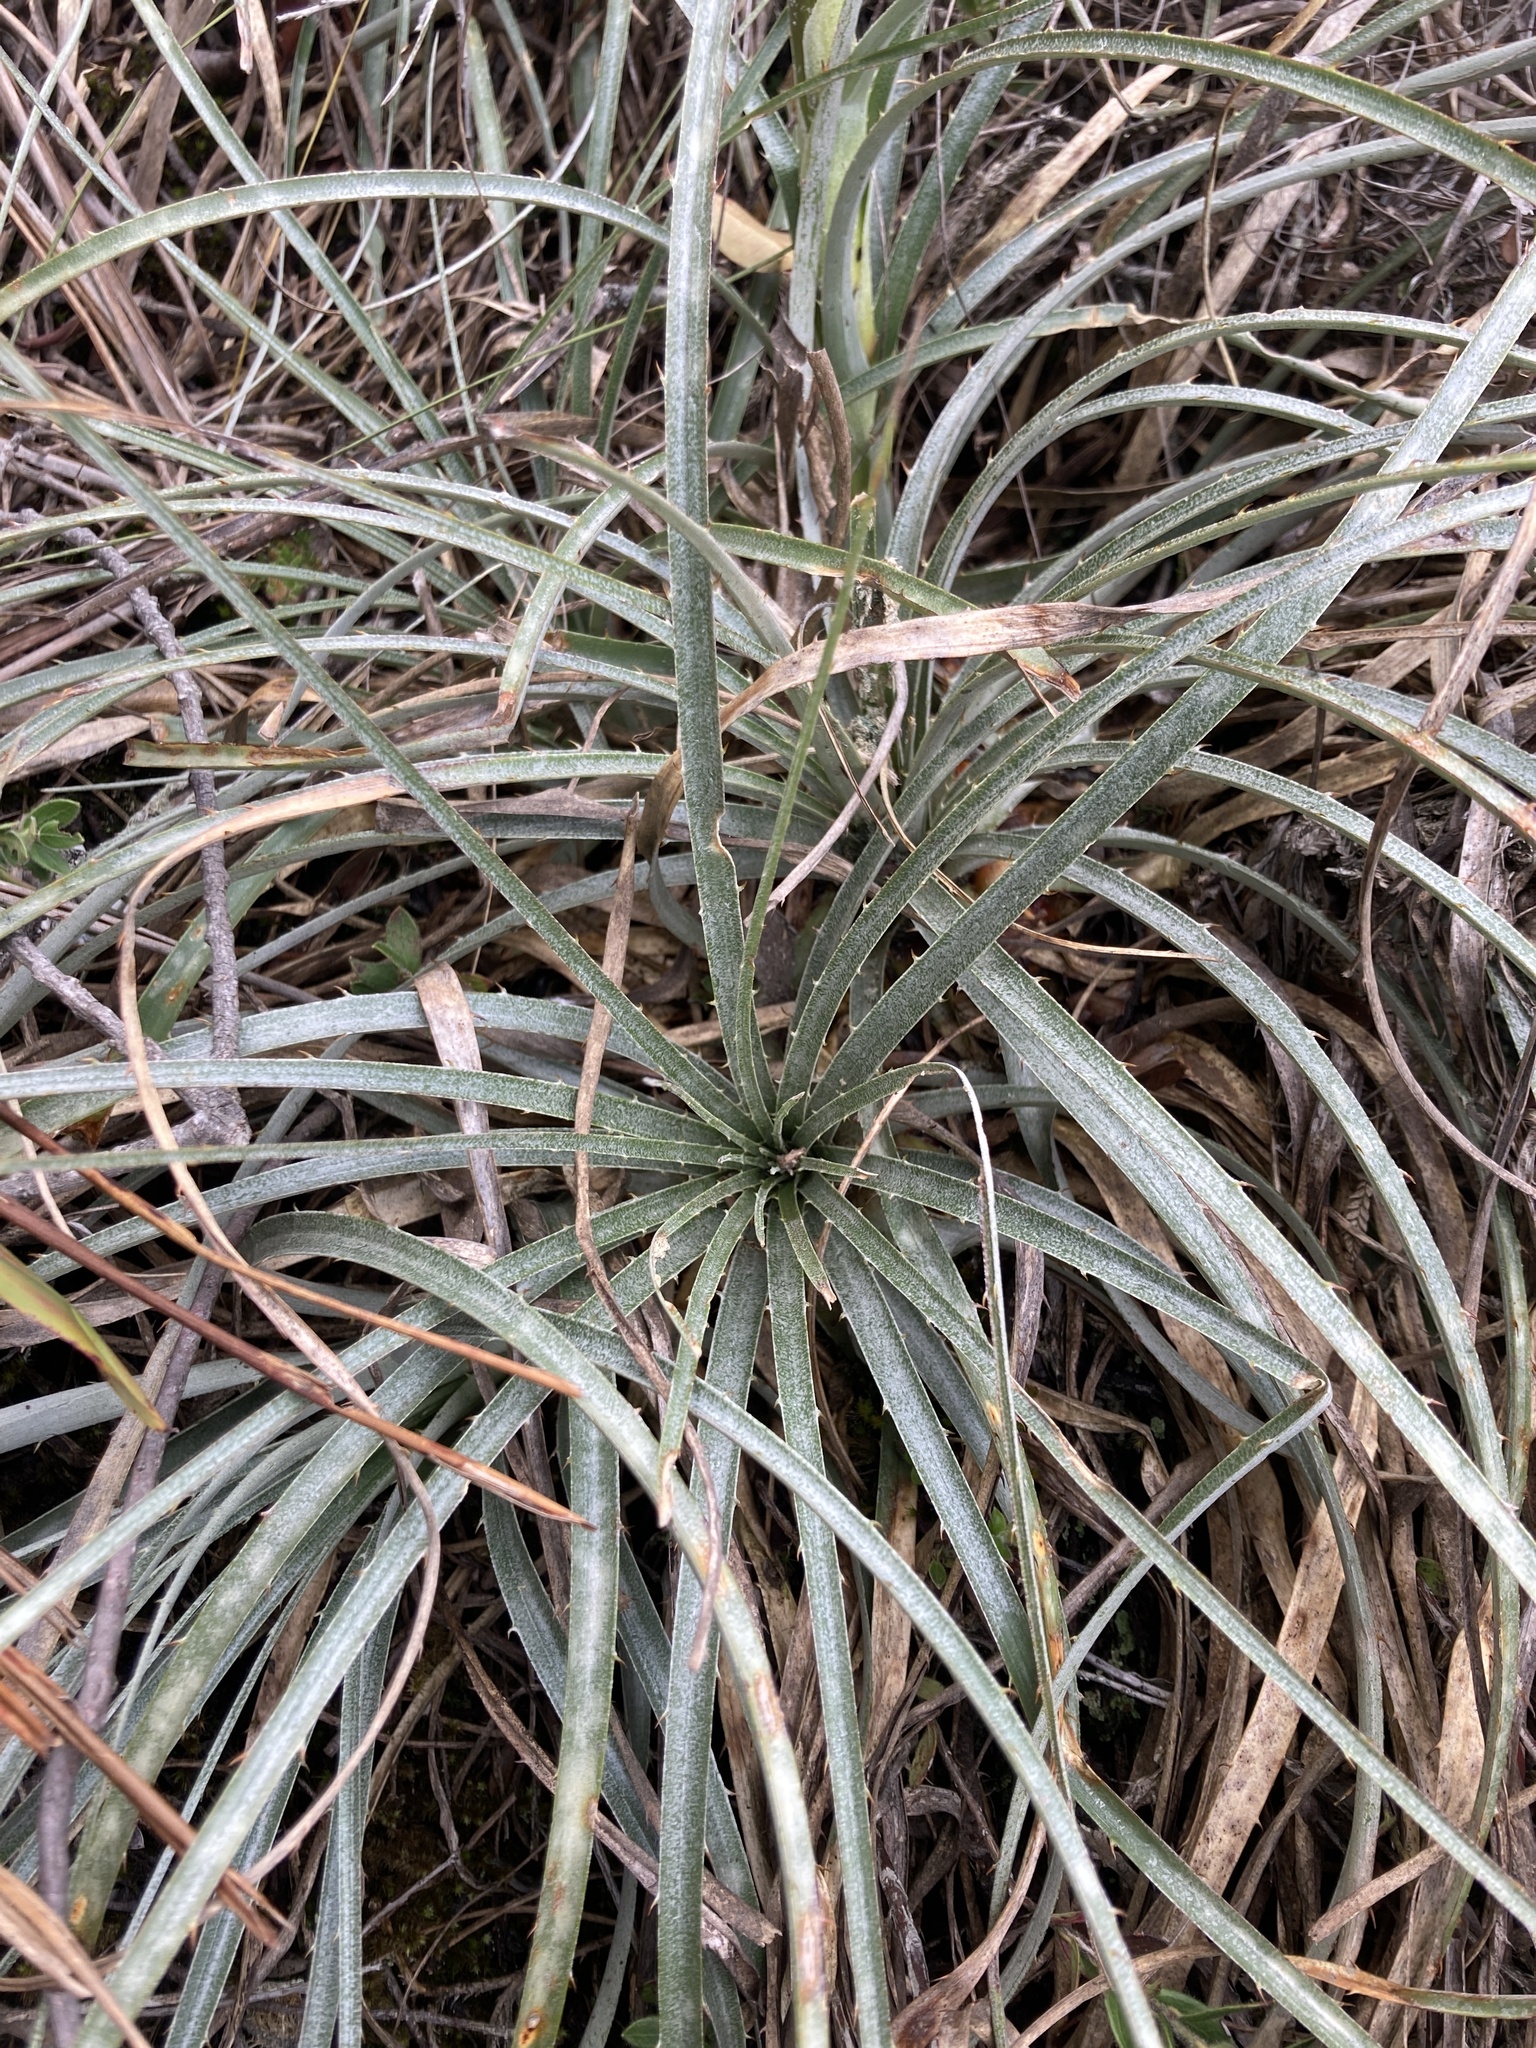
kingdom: Plantae
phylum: Tracheophyta
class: Liliopsida
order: Poales
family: Bromeliaceae
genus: Puya
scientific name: Puya lineata
